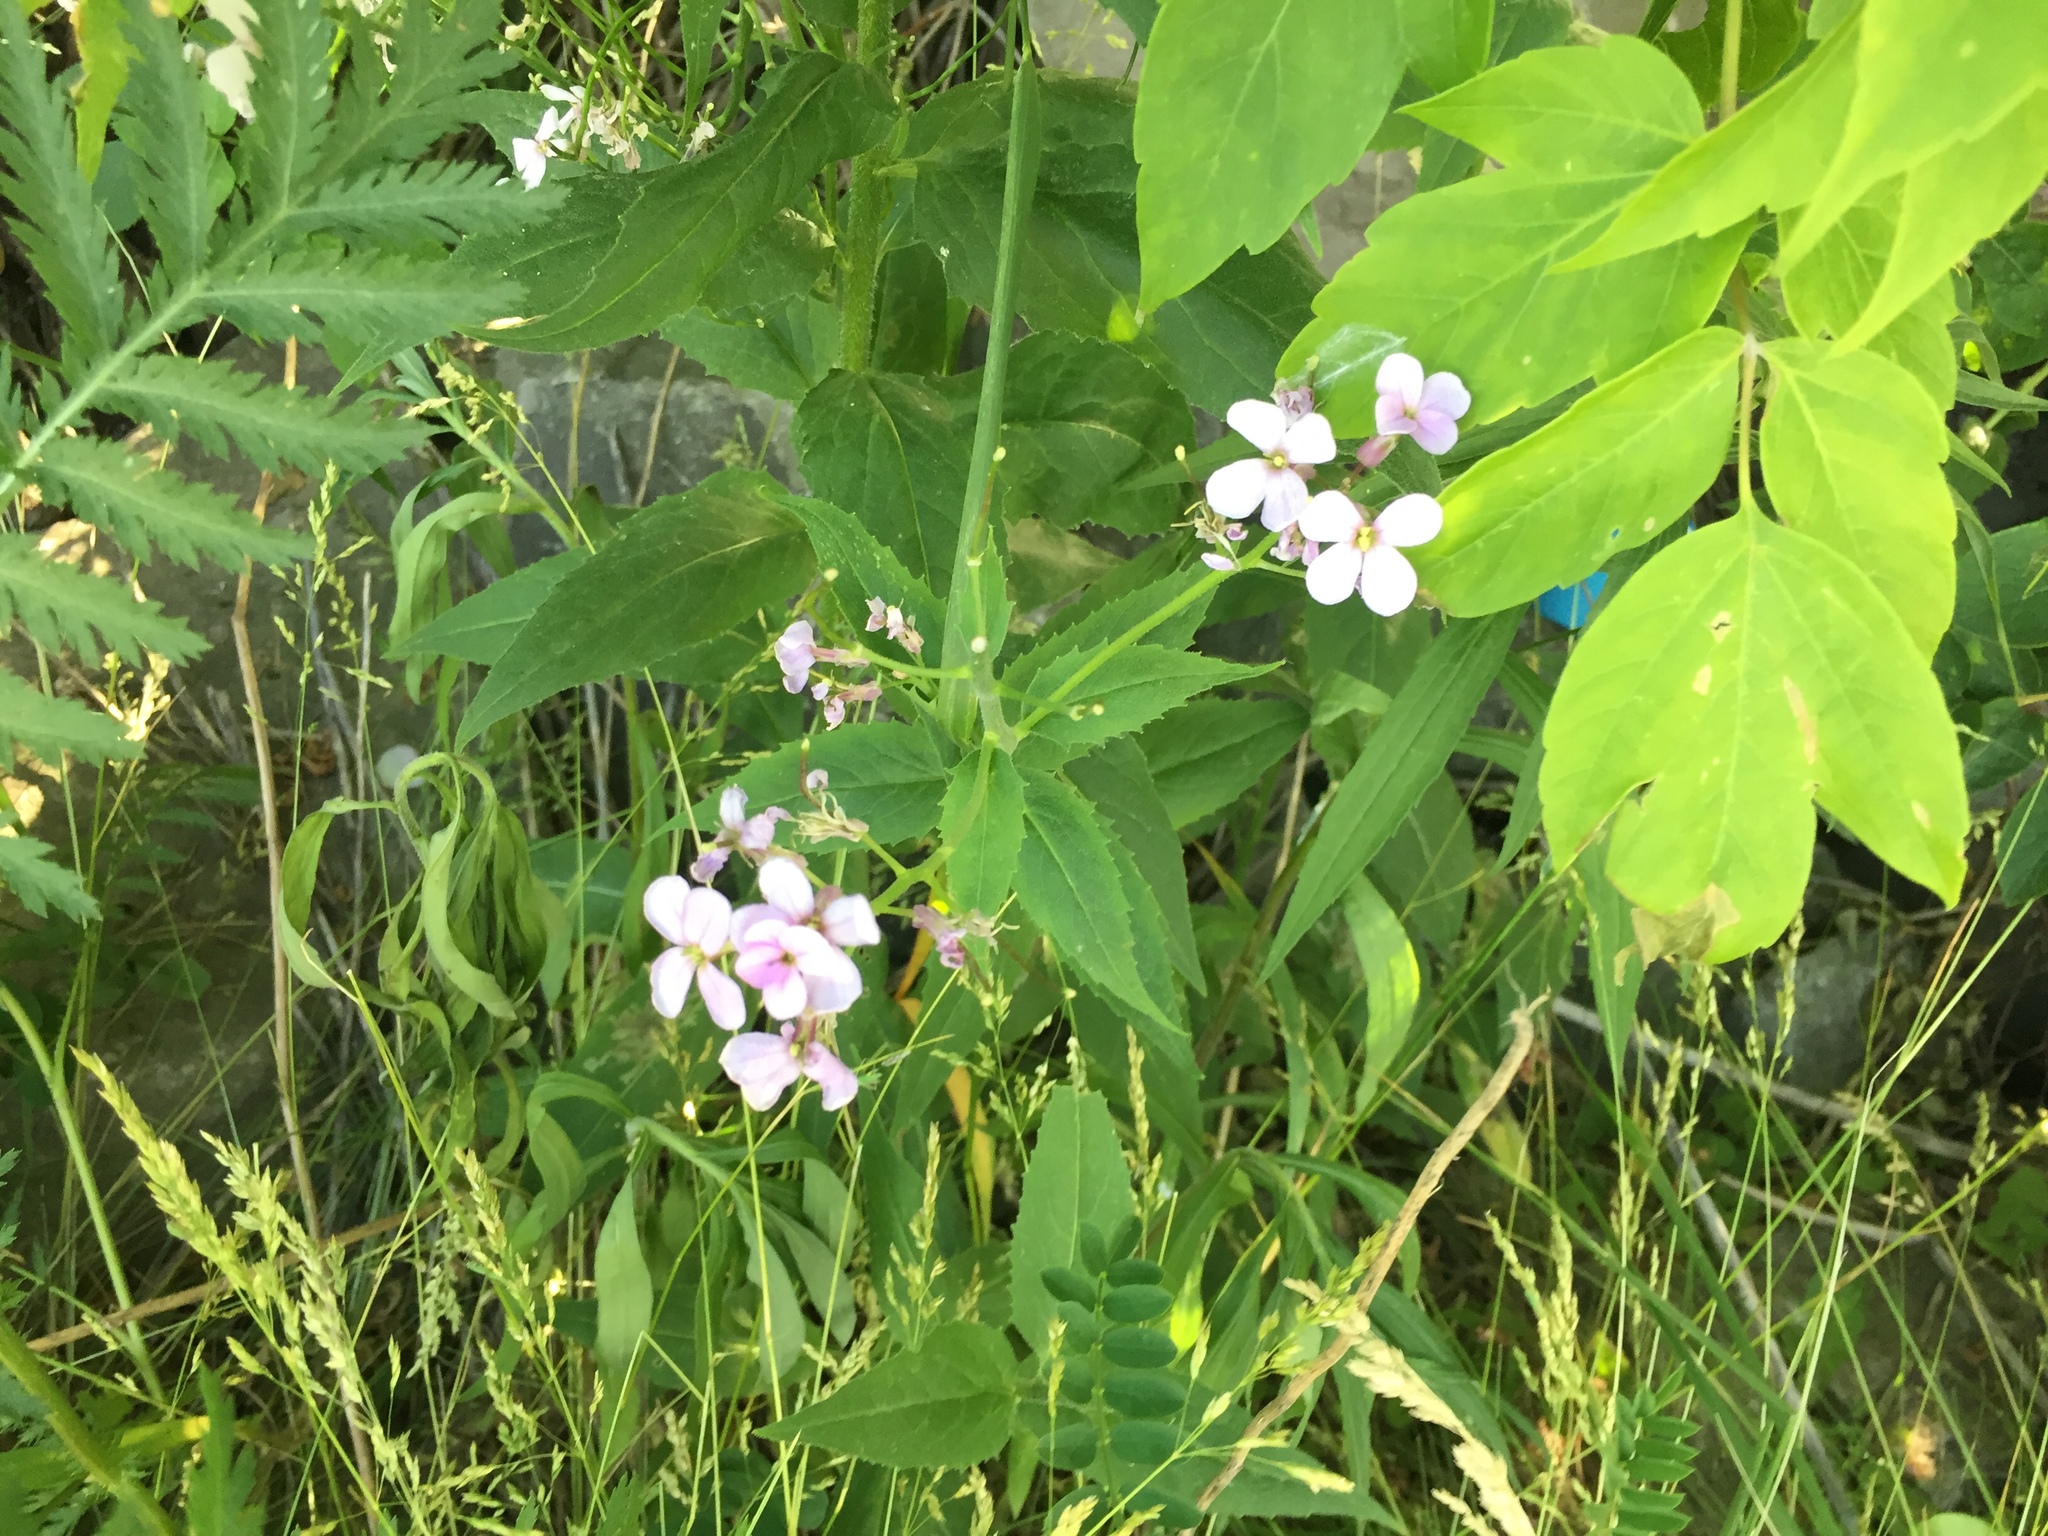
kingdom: Plantae
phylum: Tracheophyta
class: Magnoliopsida
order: Brassicales
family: Brassicaceae
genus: Hesperis
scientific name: Hesperis matronalis
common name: Dame's-violet
